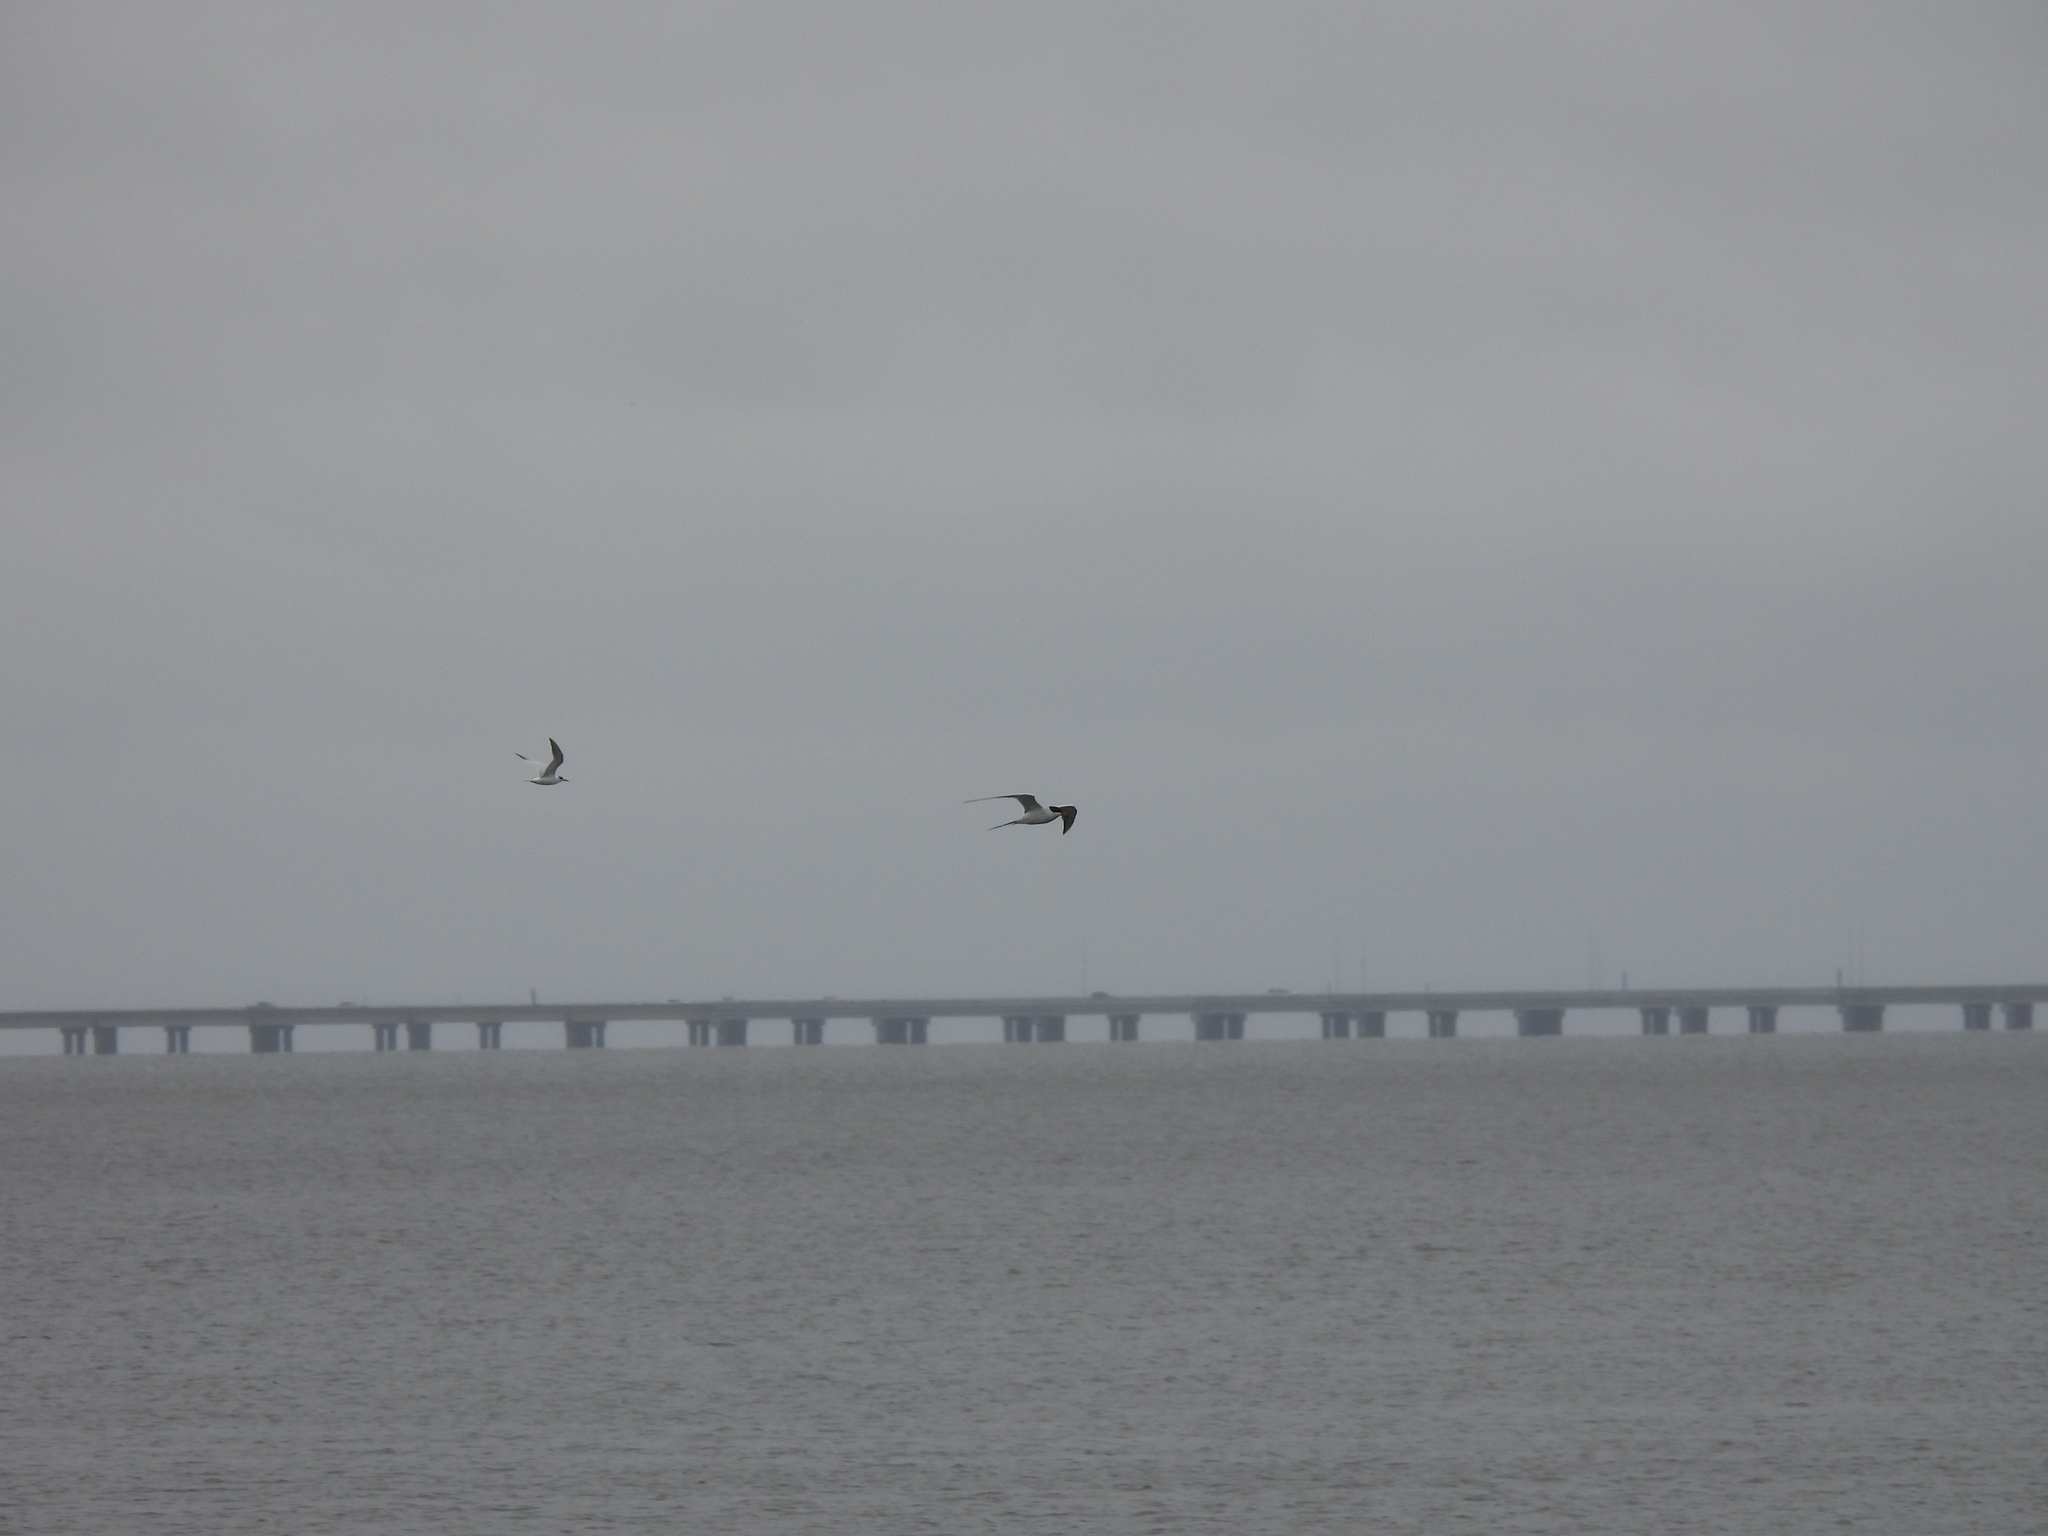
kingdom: Animalia
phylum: Chordata
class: Aves
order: Charadriiformes
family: Laridae
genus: Sterna
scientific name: Sterna forsteri
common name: Forster's tern
